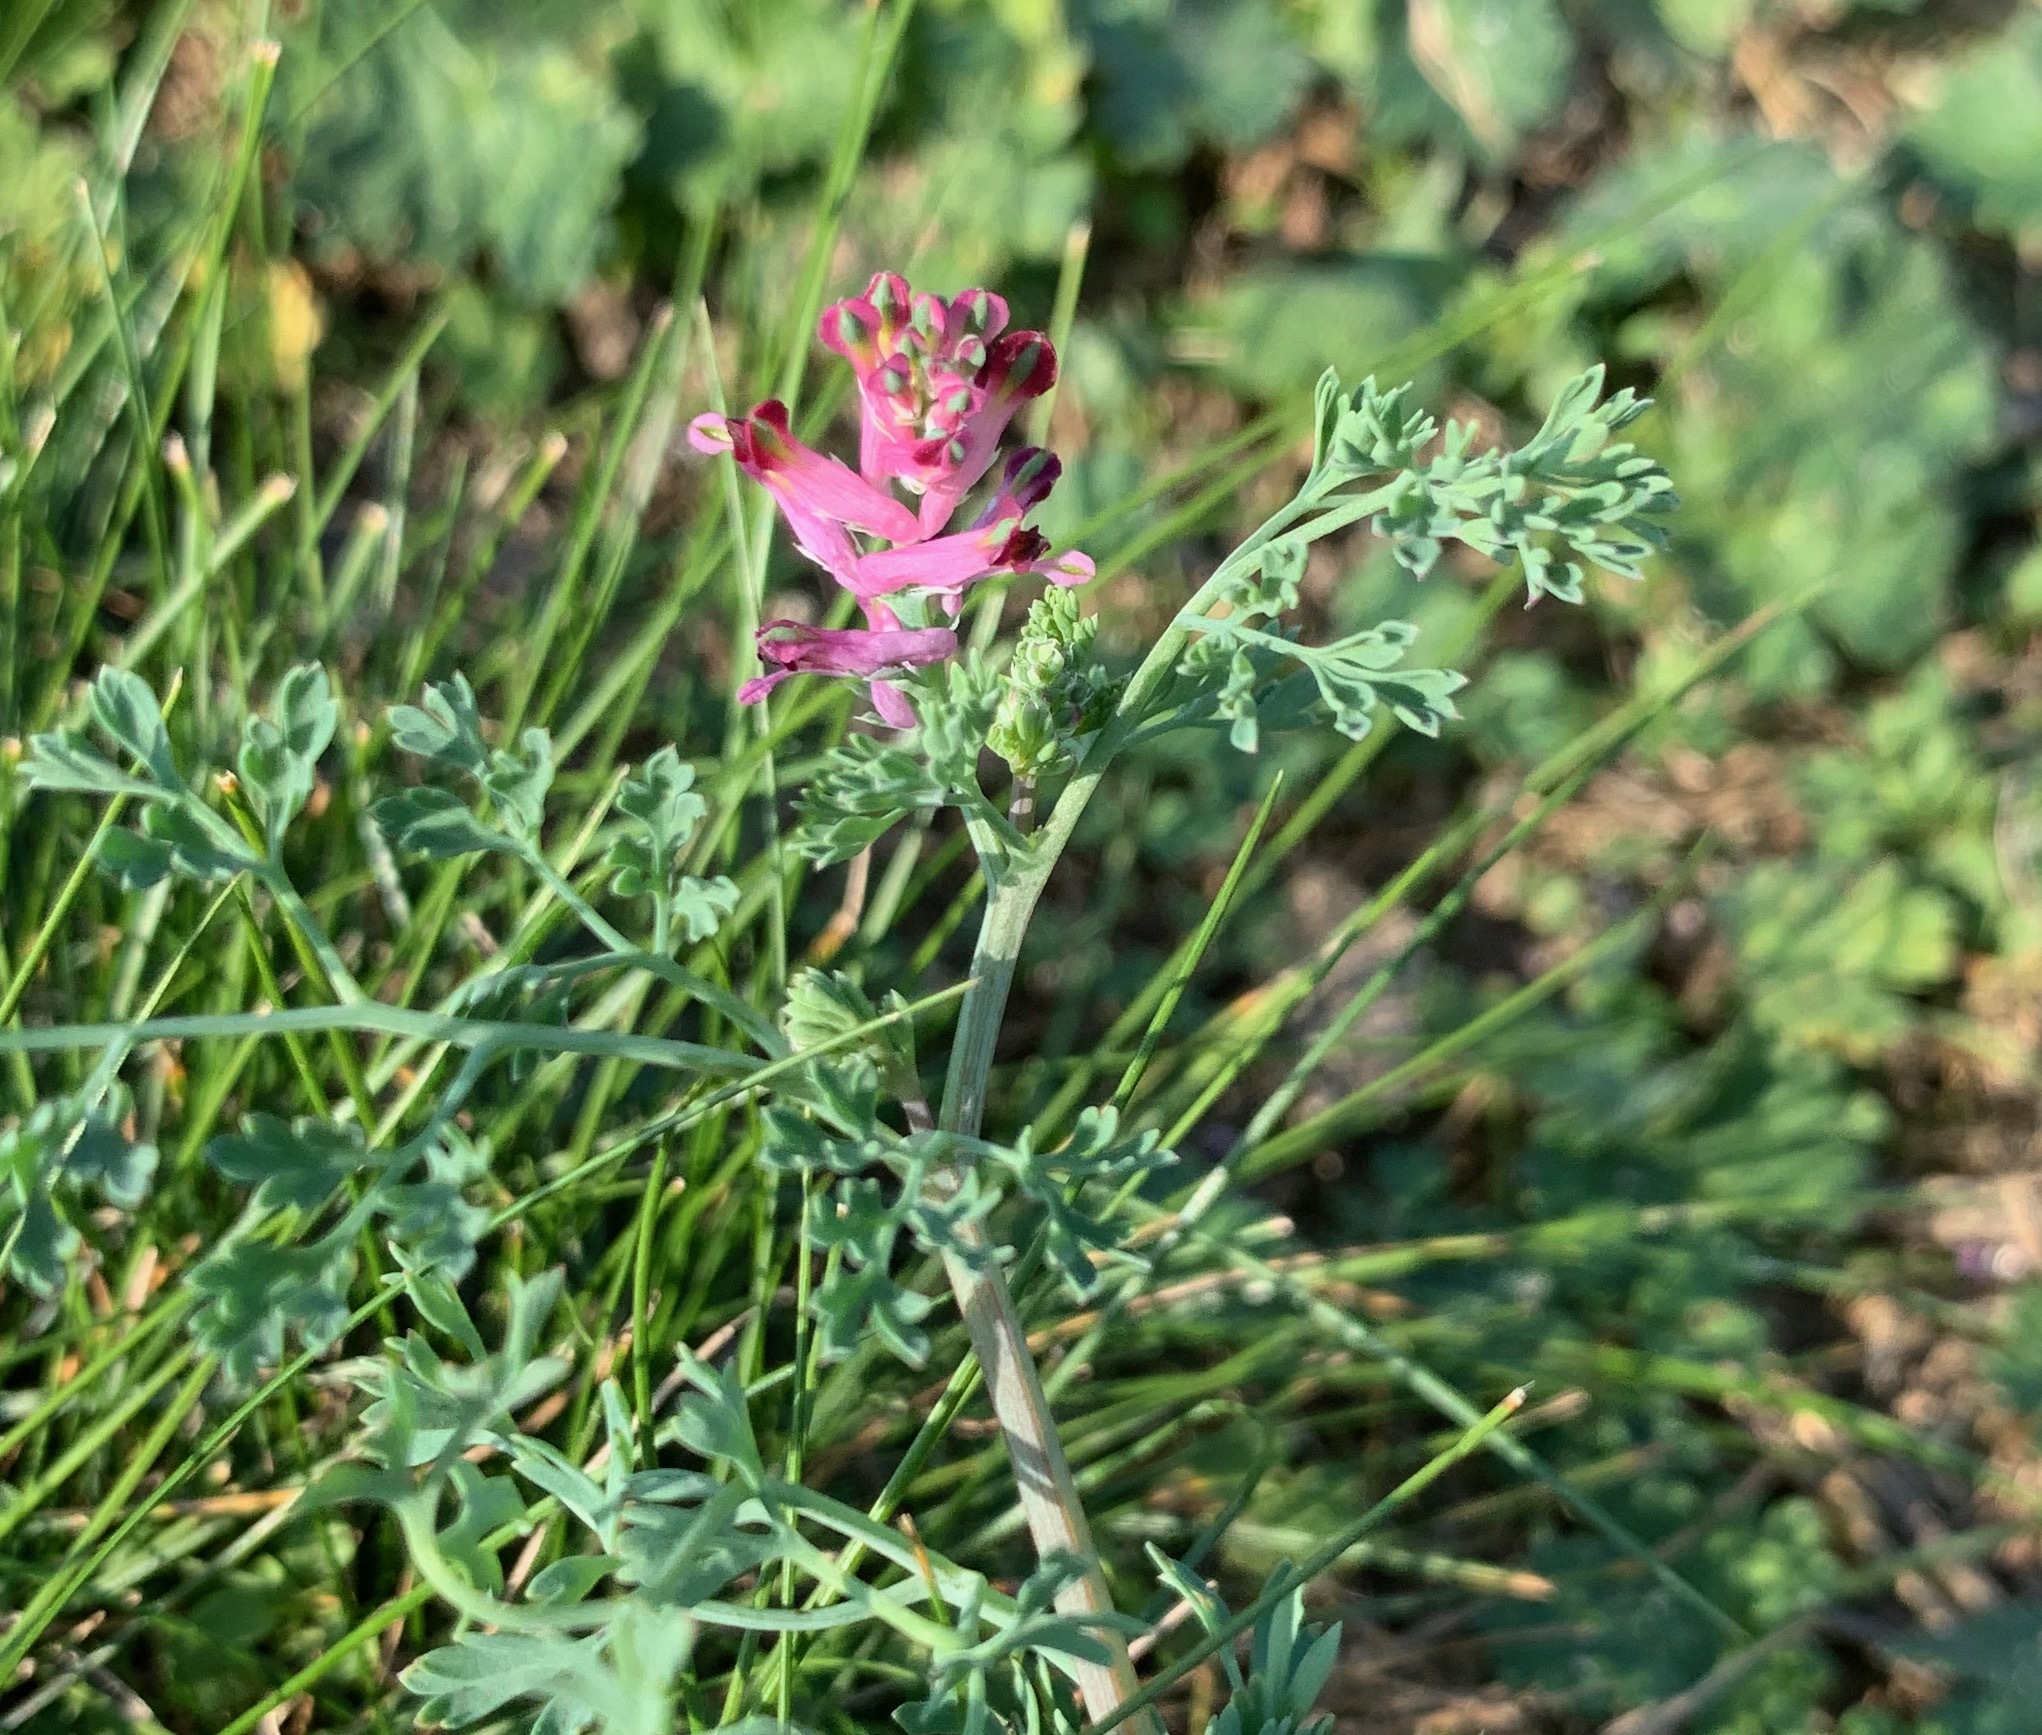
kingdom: Plantae
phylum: Tracheophyta
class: Magnoliopsida
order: Ranunculales
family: Papaveraceae
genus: Fumaria
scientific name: Fumaria officinalis
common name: Common fumitory
